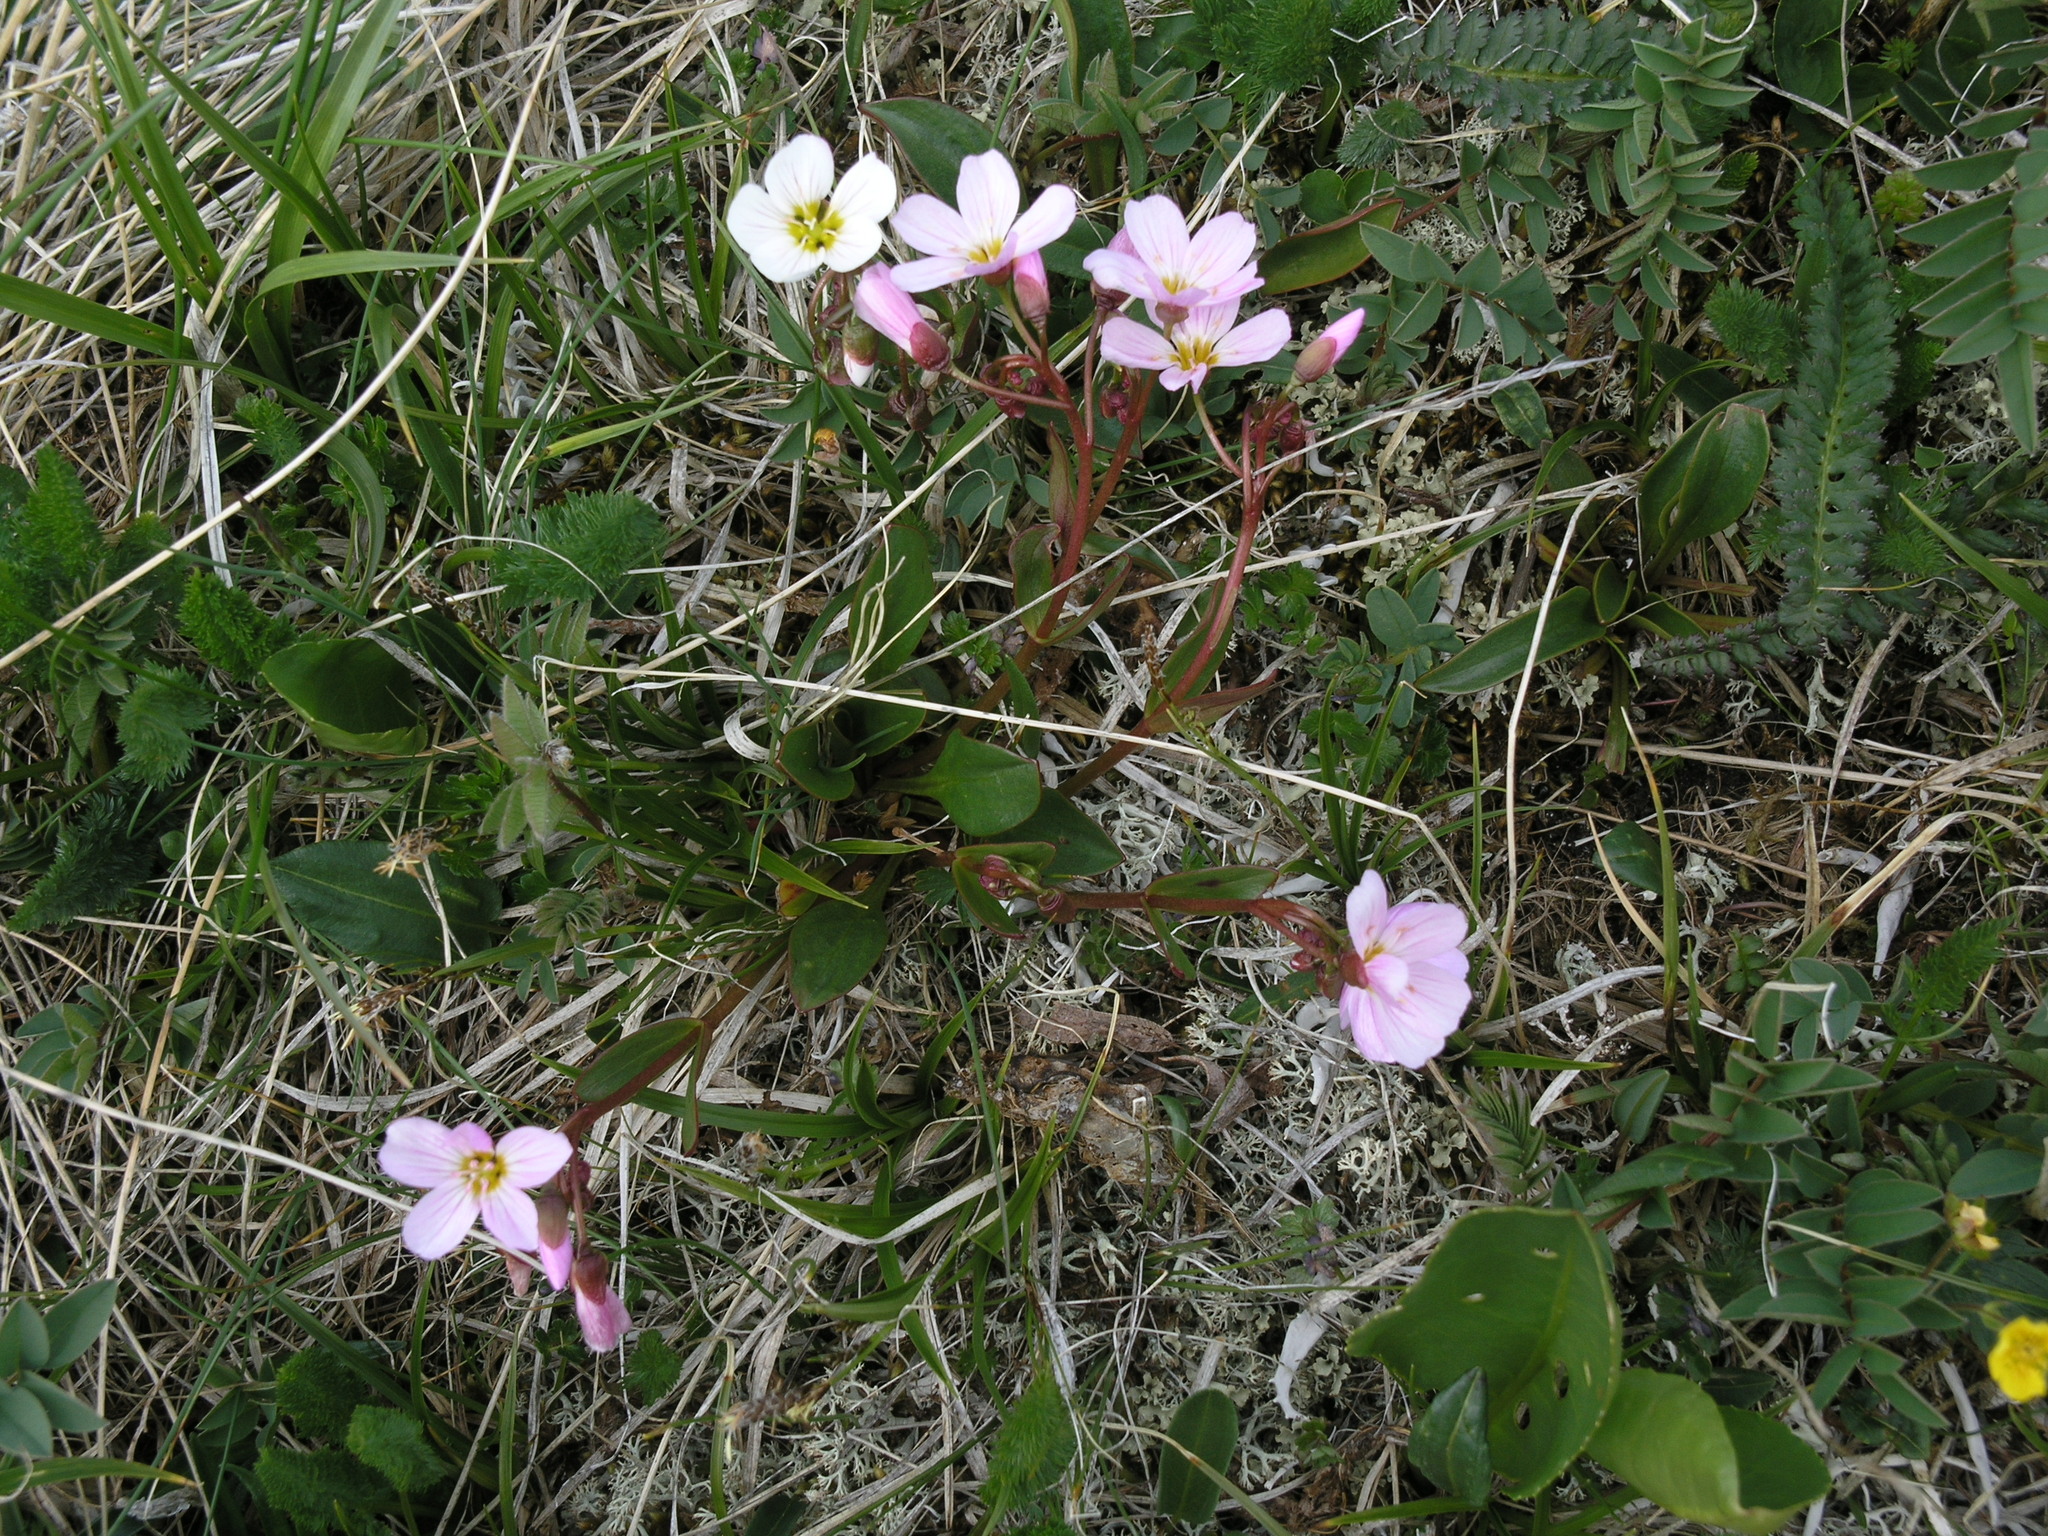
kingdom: Plantae
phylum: Tracheophyta
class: Magnoliopsida
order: Caryophyllales
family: Montiaceae
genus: Claytonia
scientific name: Claytonia joanneana
